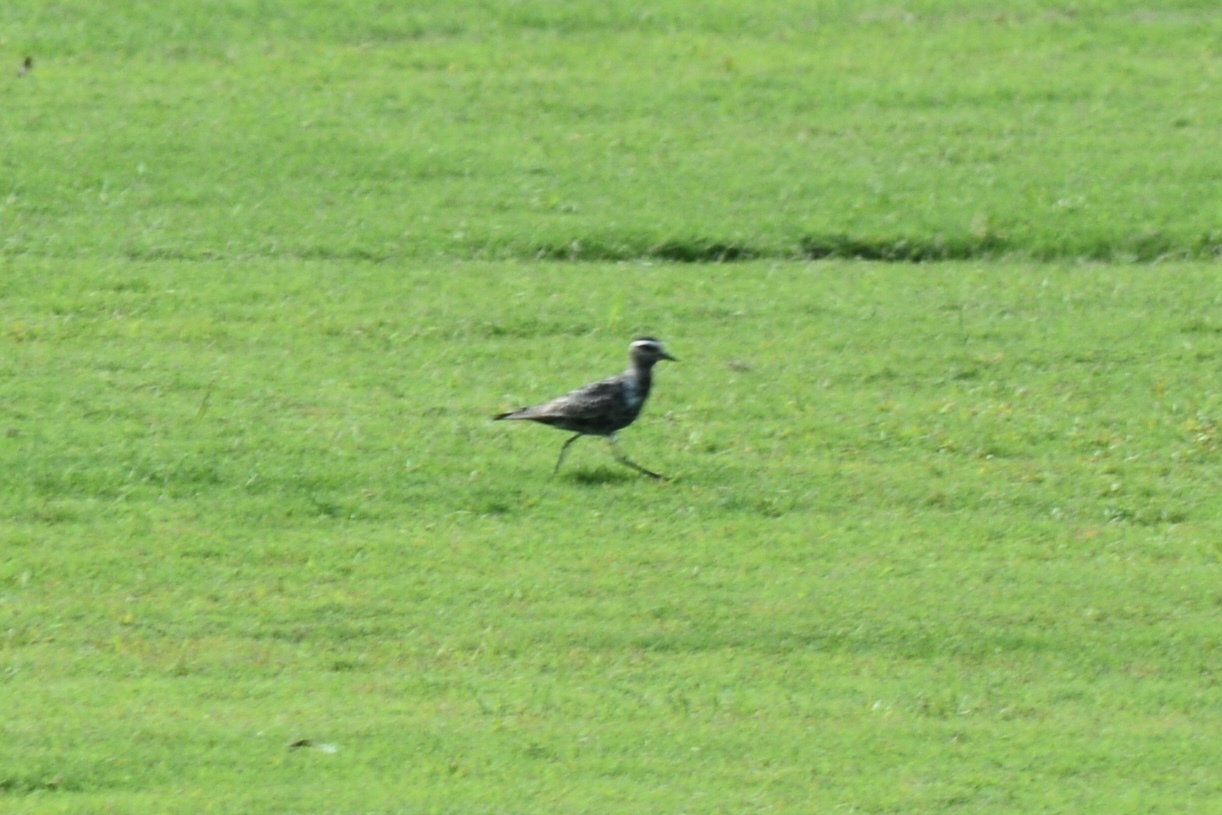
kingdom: Animalia
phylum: Chordata
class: Aves
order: Charadriiformes
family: Charadriidae
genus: Pluvialis
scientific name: Pluvialis dominica
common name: American golden plover
